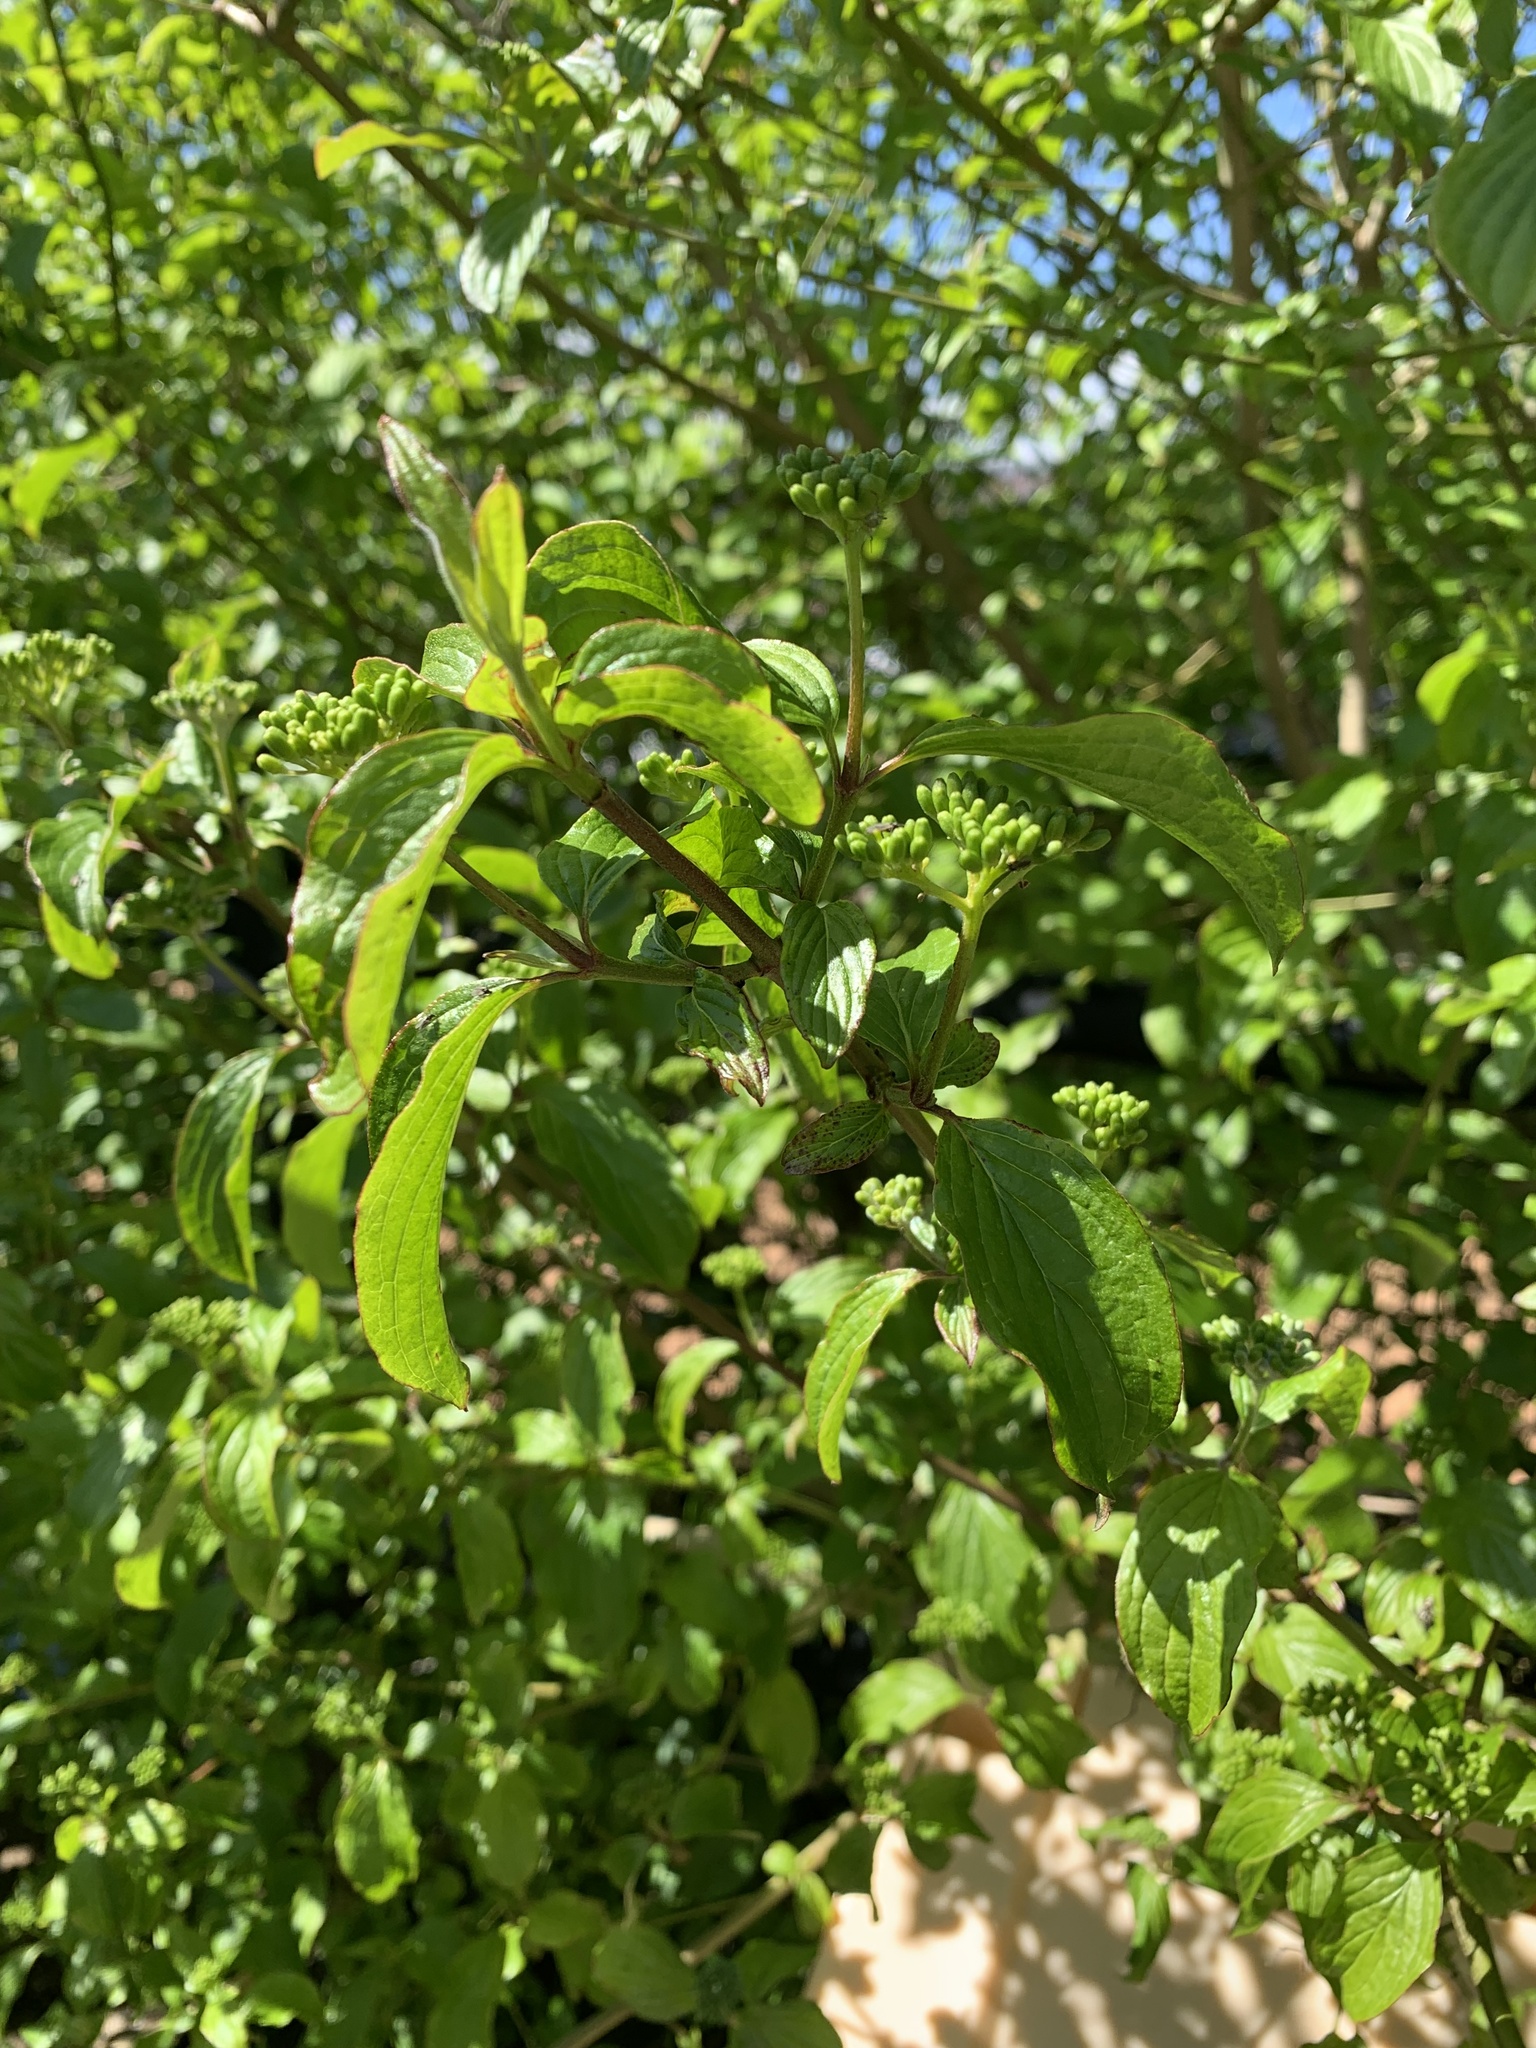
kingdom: Plantae
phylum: Tracheophyta
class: Magnoliopsida
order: Cornales
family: Cornaceae
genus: Cornus
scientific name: Cornus sanguinea
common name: Dogwood
